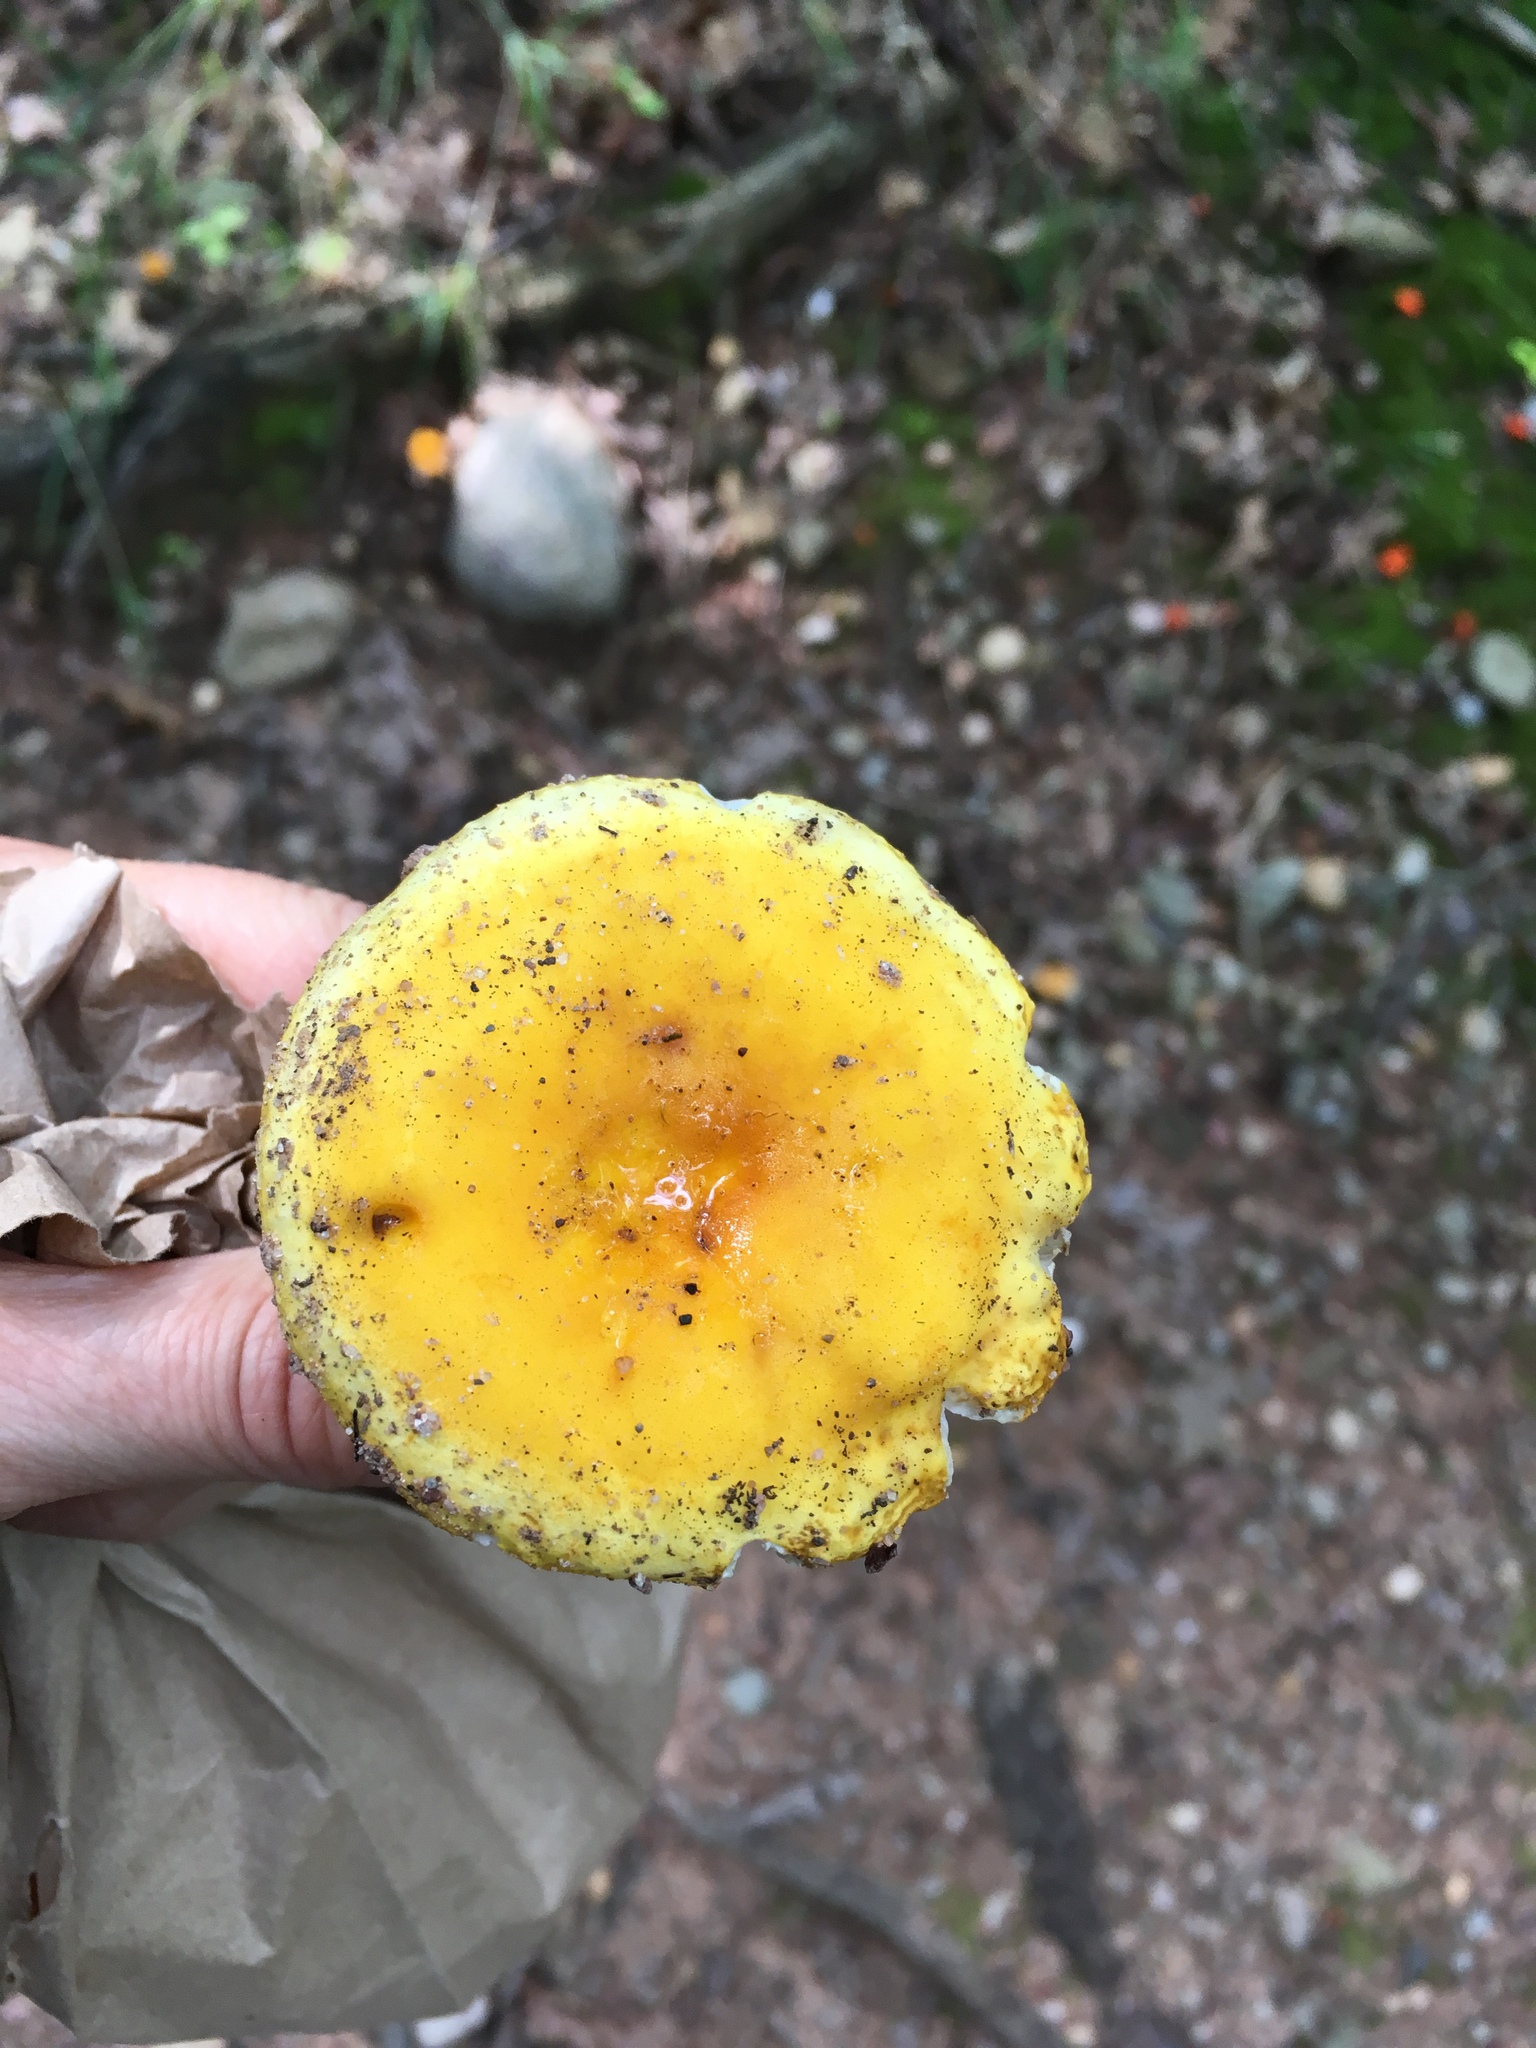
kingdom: Fungi
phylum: Basidiomycota
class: Agaricomycetes
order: Russulales
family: Russulaceae
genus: Russula
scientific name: Russula flavida
